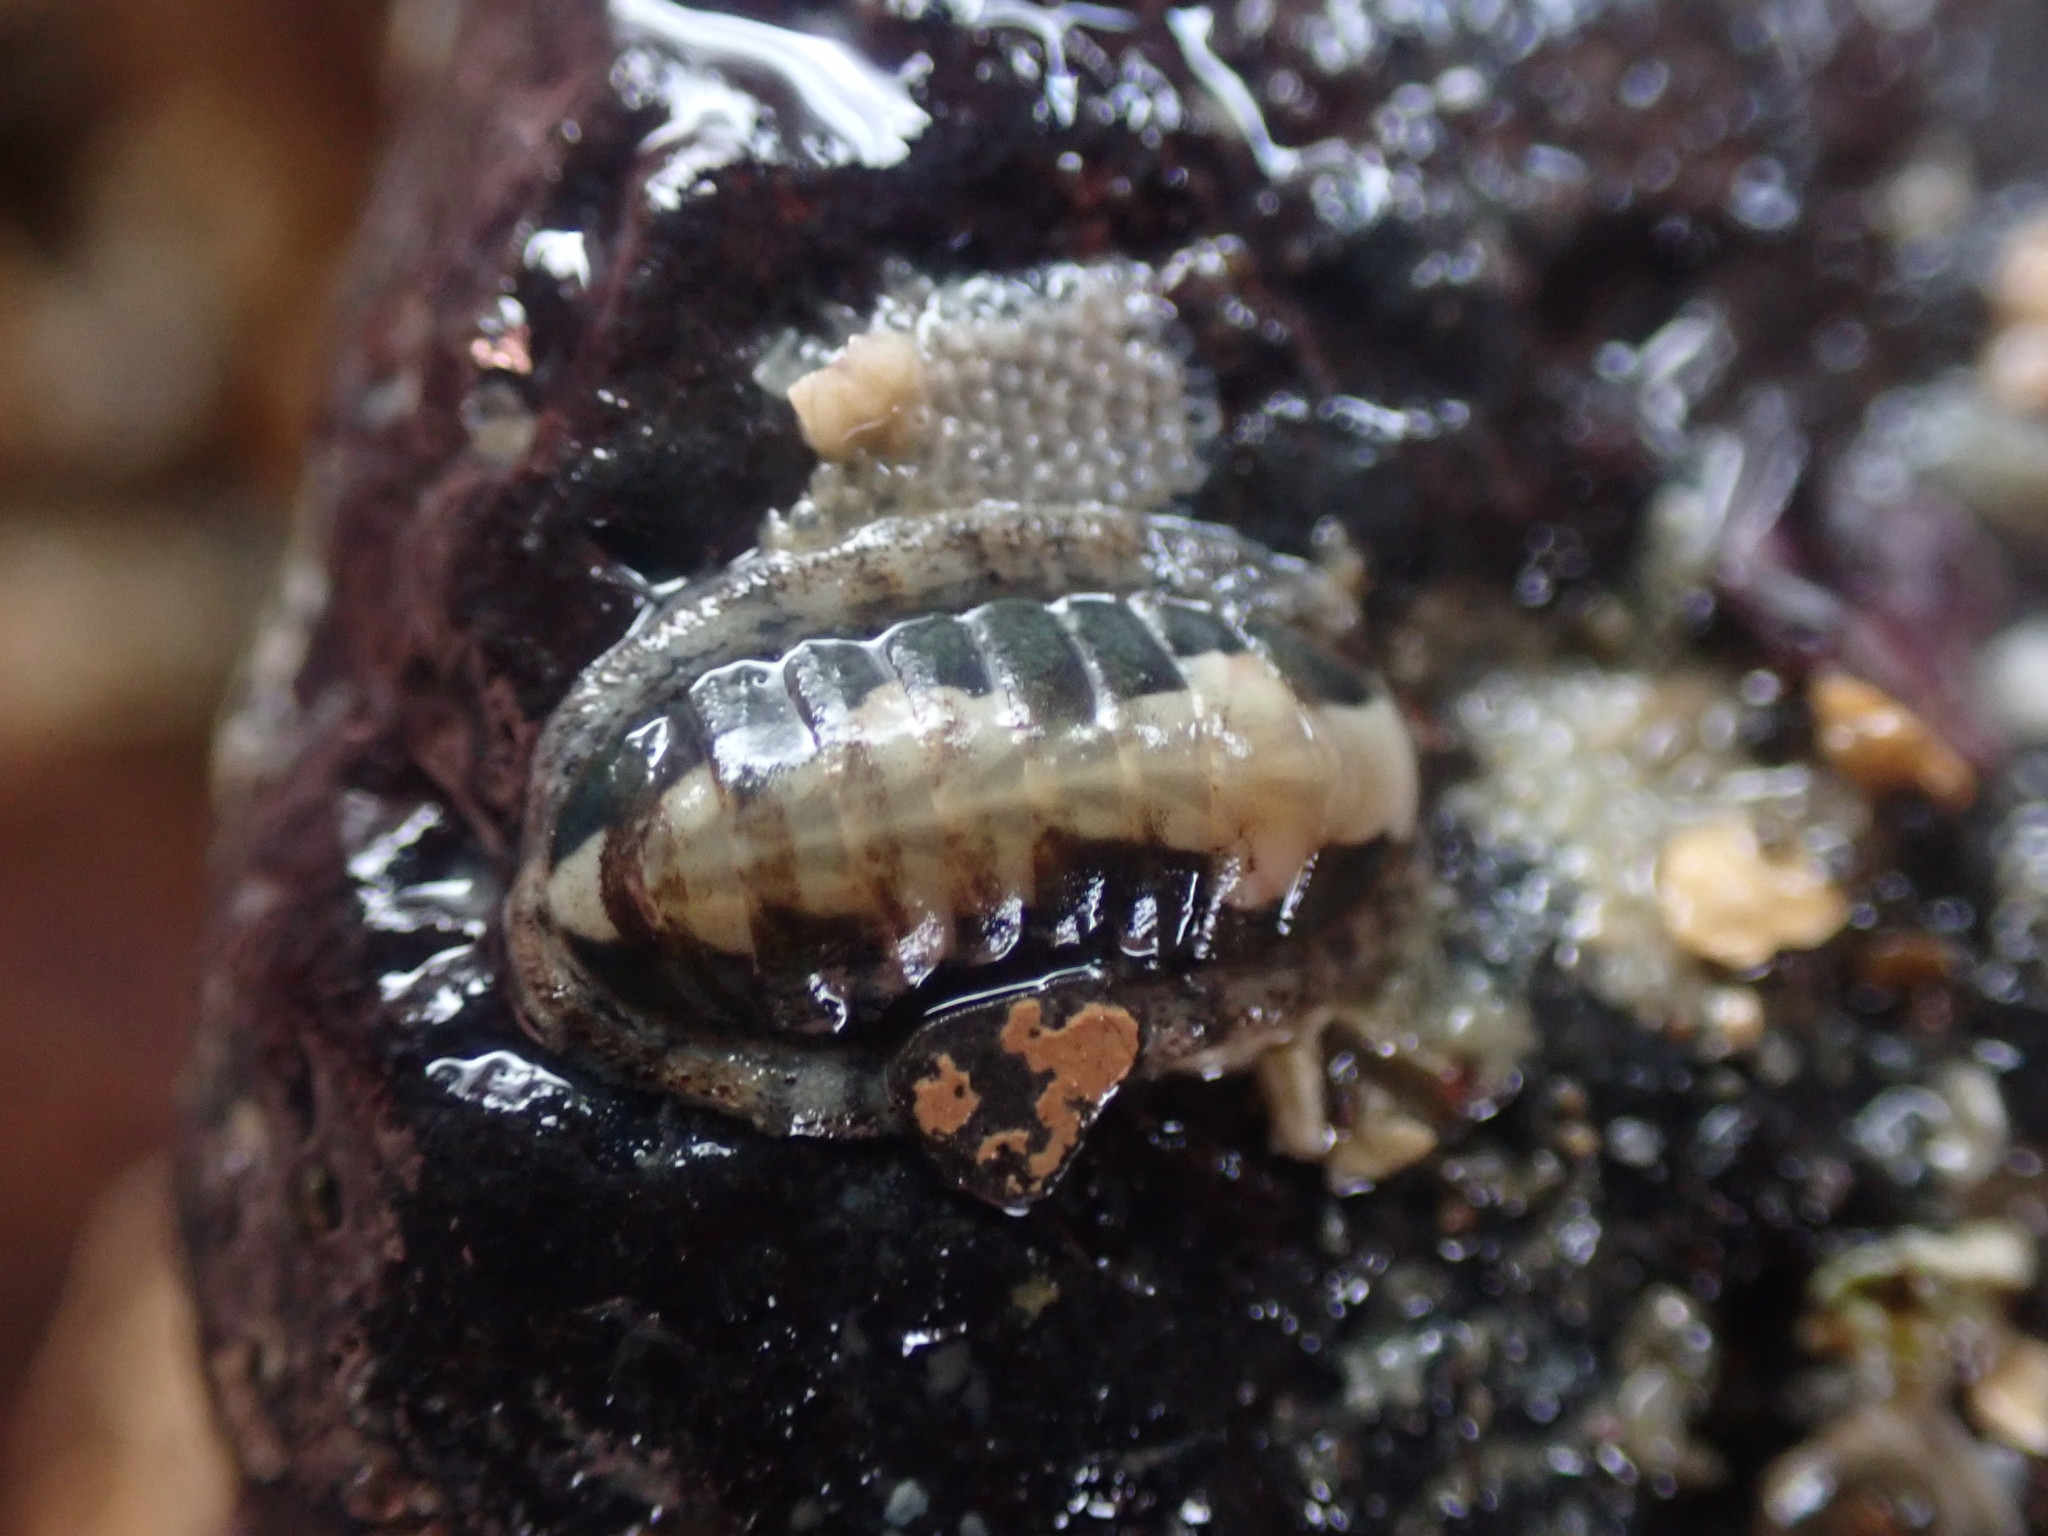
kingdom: Animalia
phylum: Mollusca
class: Polyplacophora
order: Chitonida
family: Ischnochitonidae
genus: Ischnochiton
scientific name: Ischnochiton maorianus
